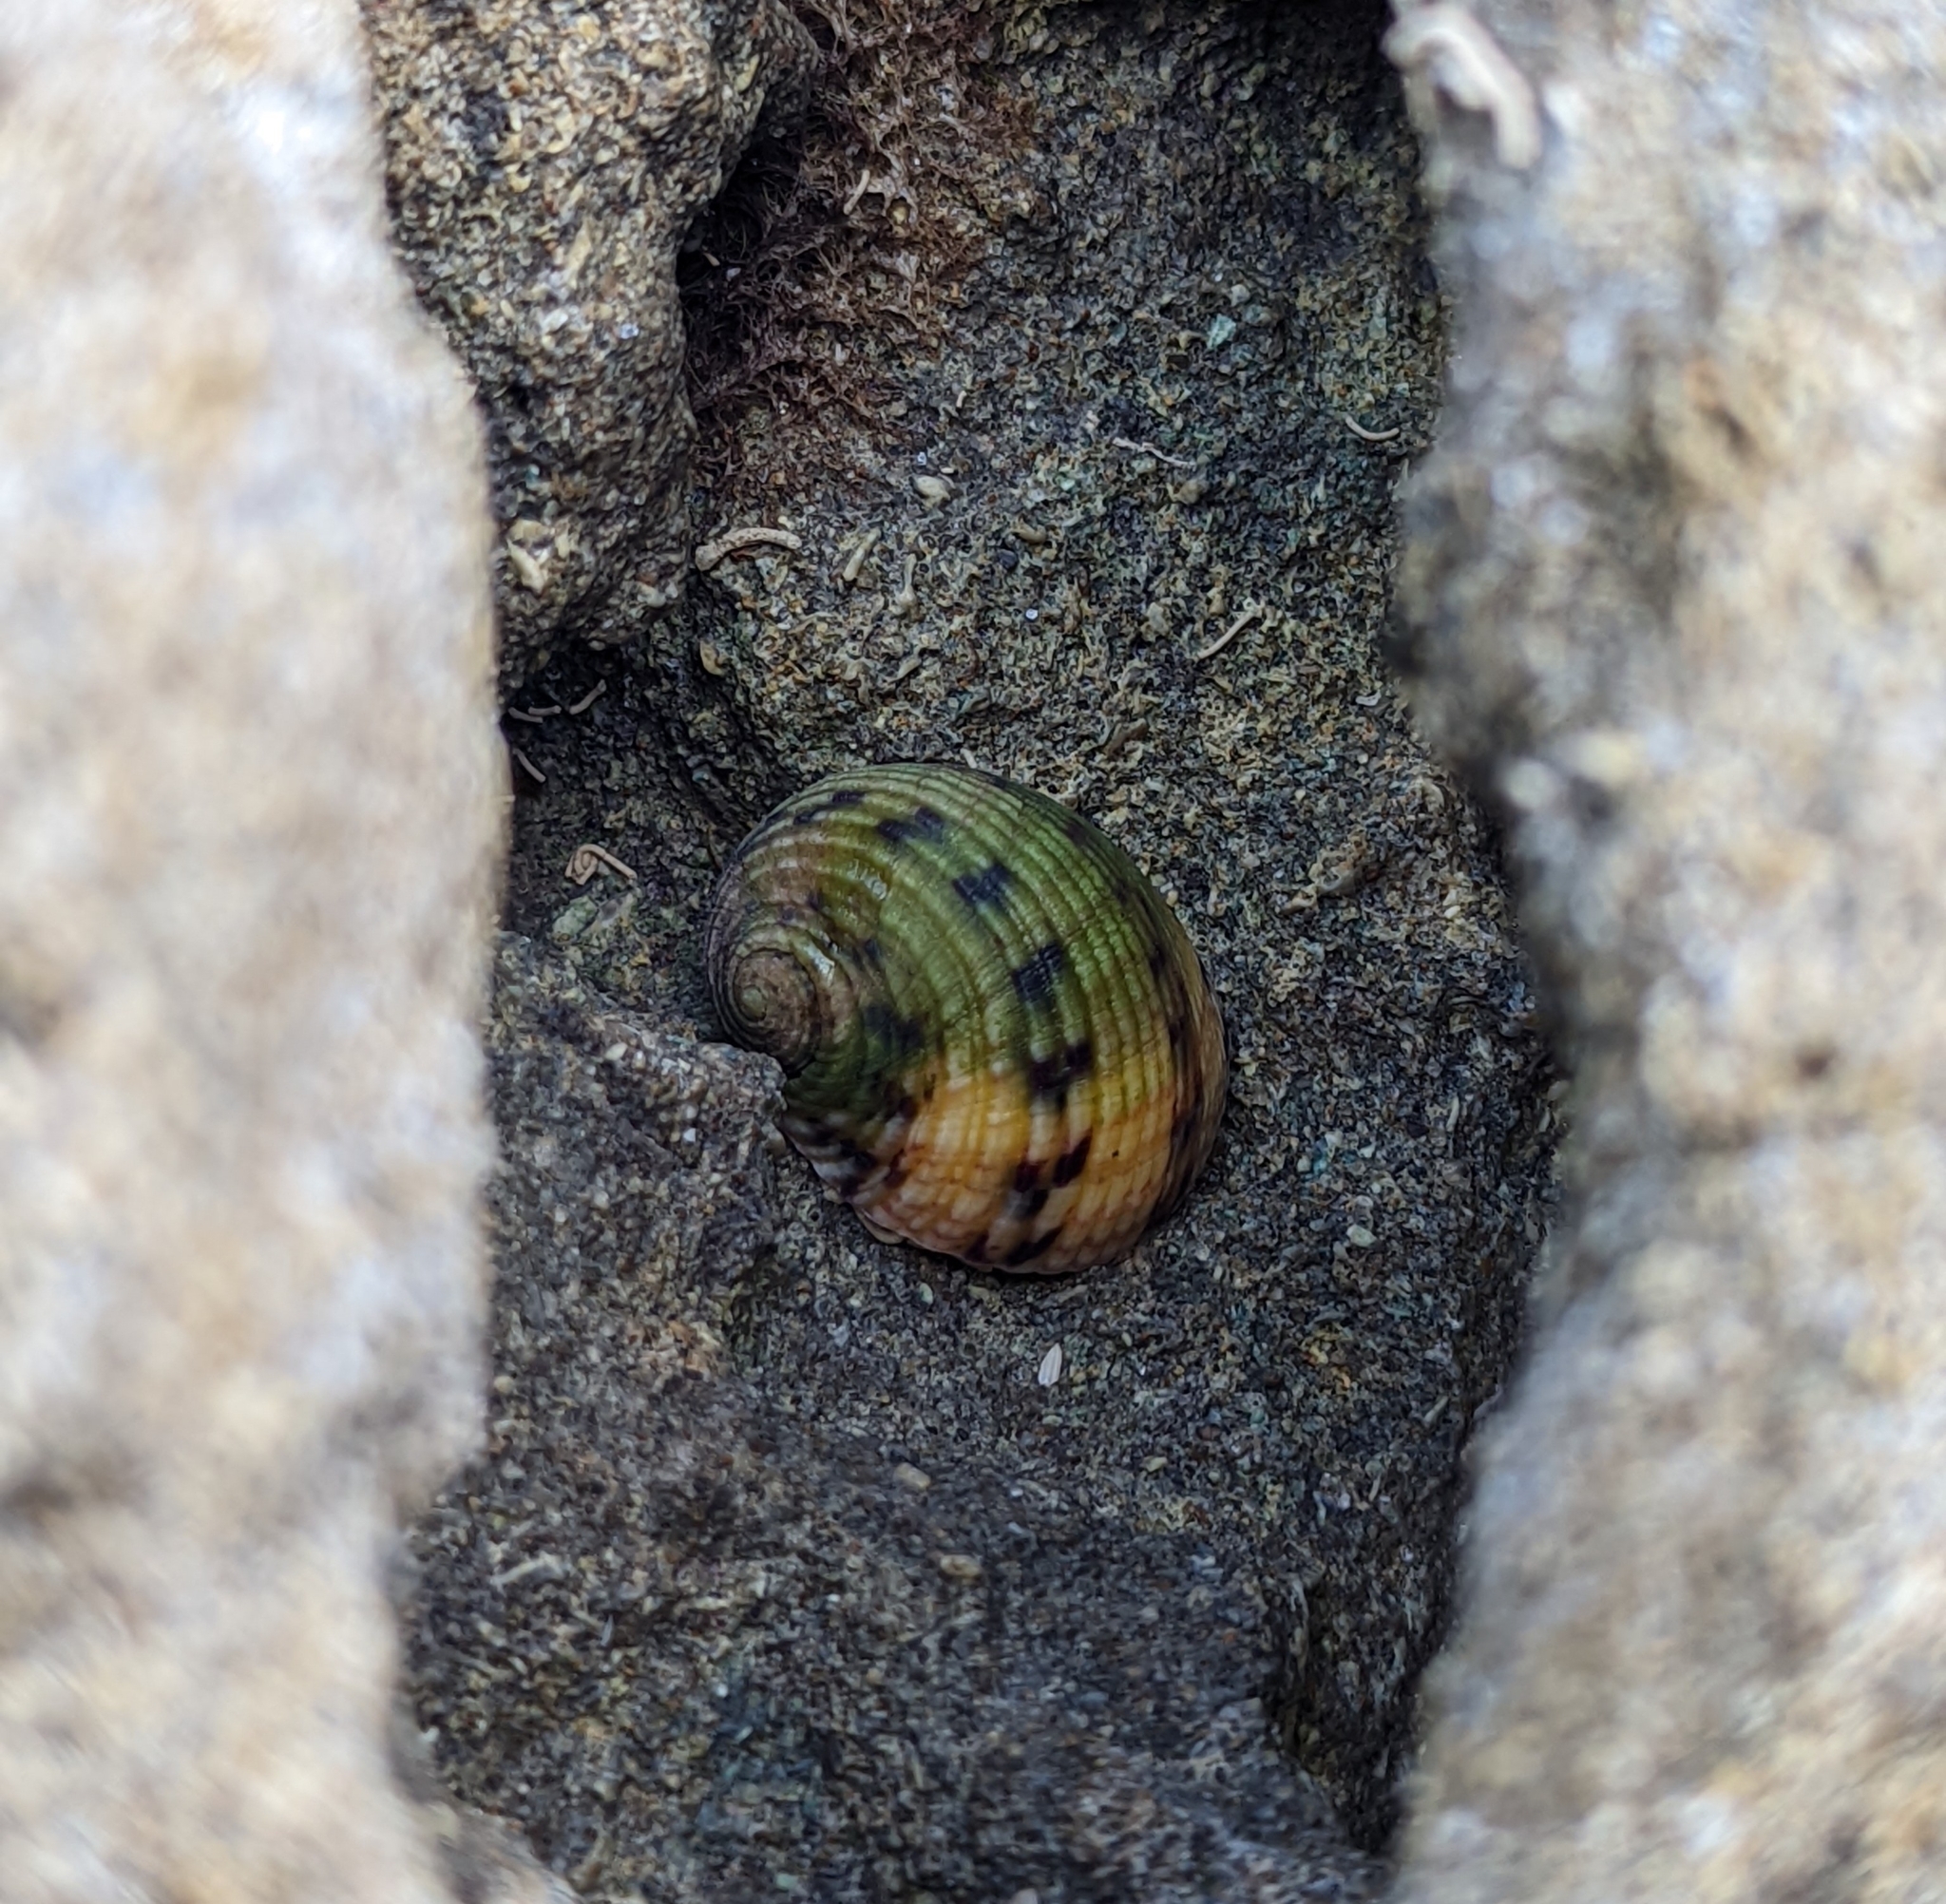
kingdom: Animalia
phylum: Mollusca
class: Gastropoda
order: Cycloneritida
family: Neritidae
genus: Nerita
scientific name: Nerita peloronta
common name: Bleeding tooth
